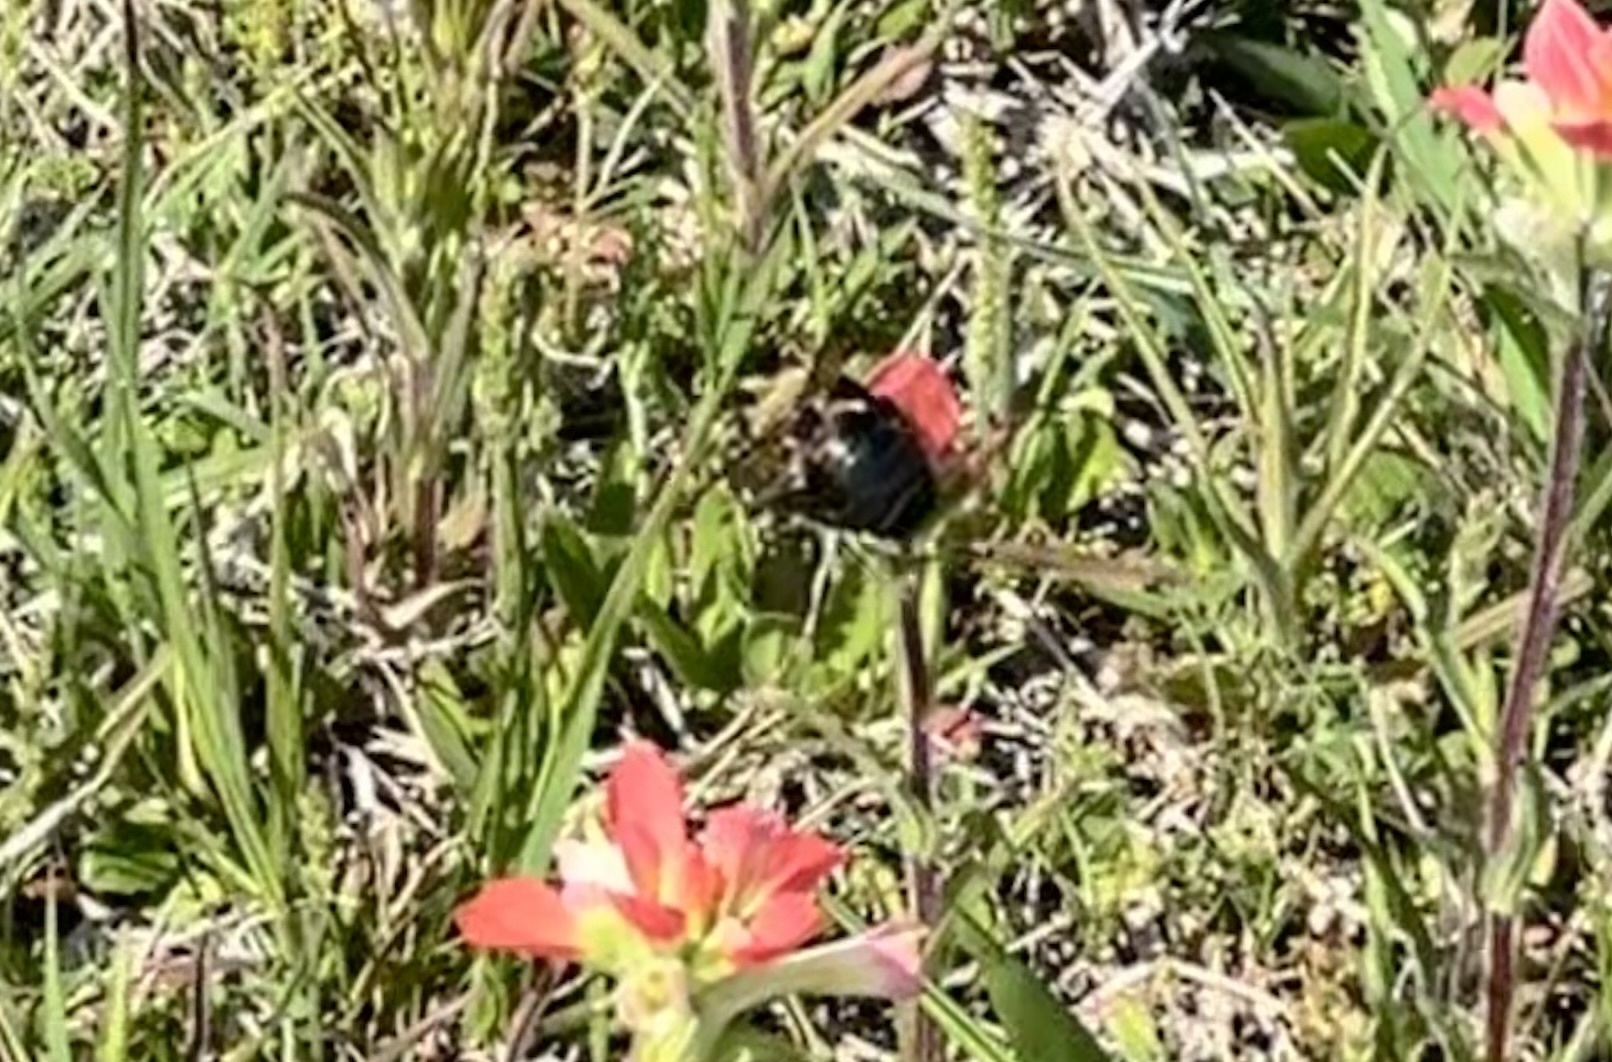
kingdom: Animalia
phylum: Arthropoda
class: Insecta
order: Hymenoptera
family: Apidae
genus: Xylocopa
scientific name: Xylocopa virginica
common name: Carpenter bee
